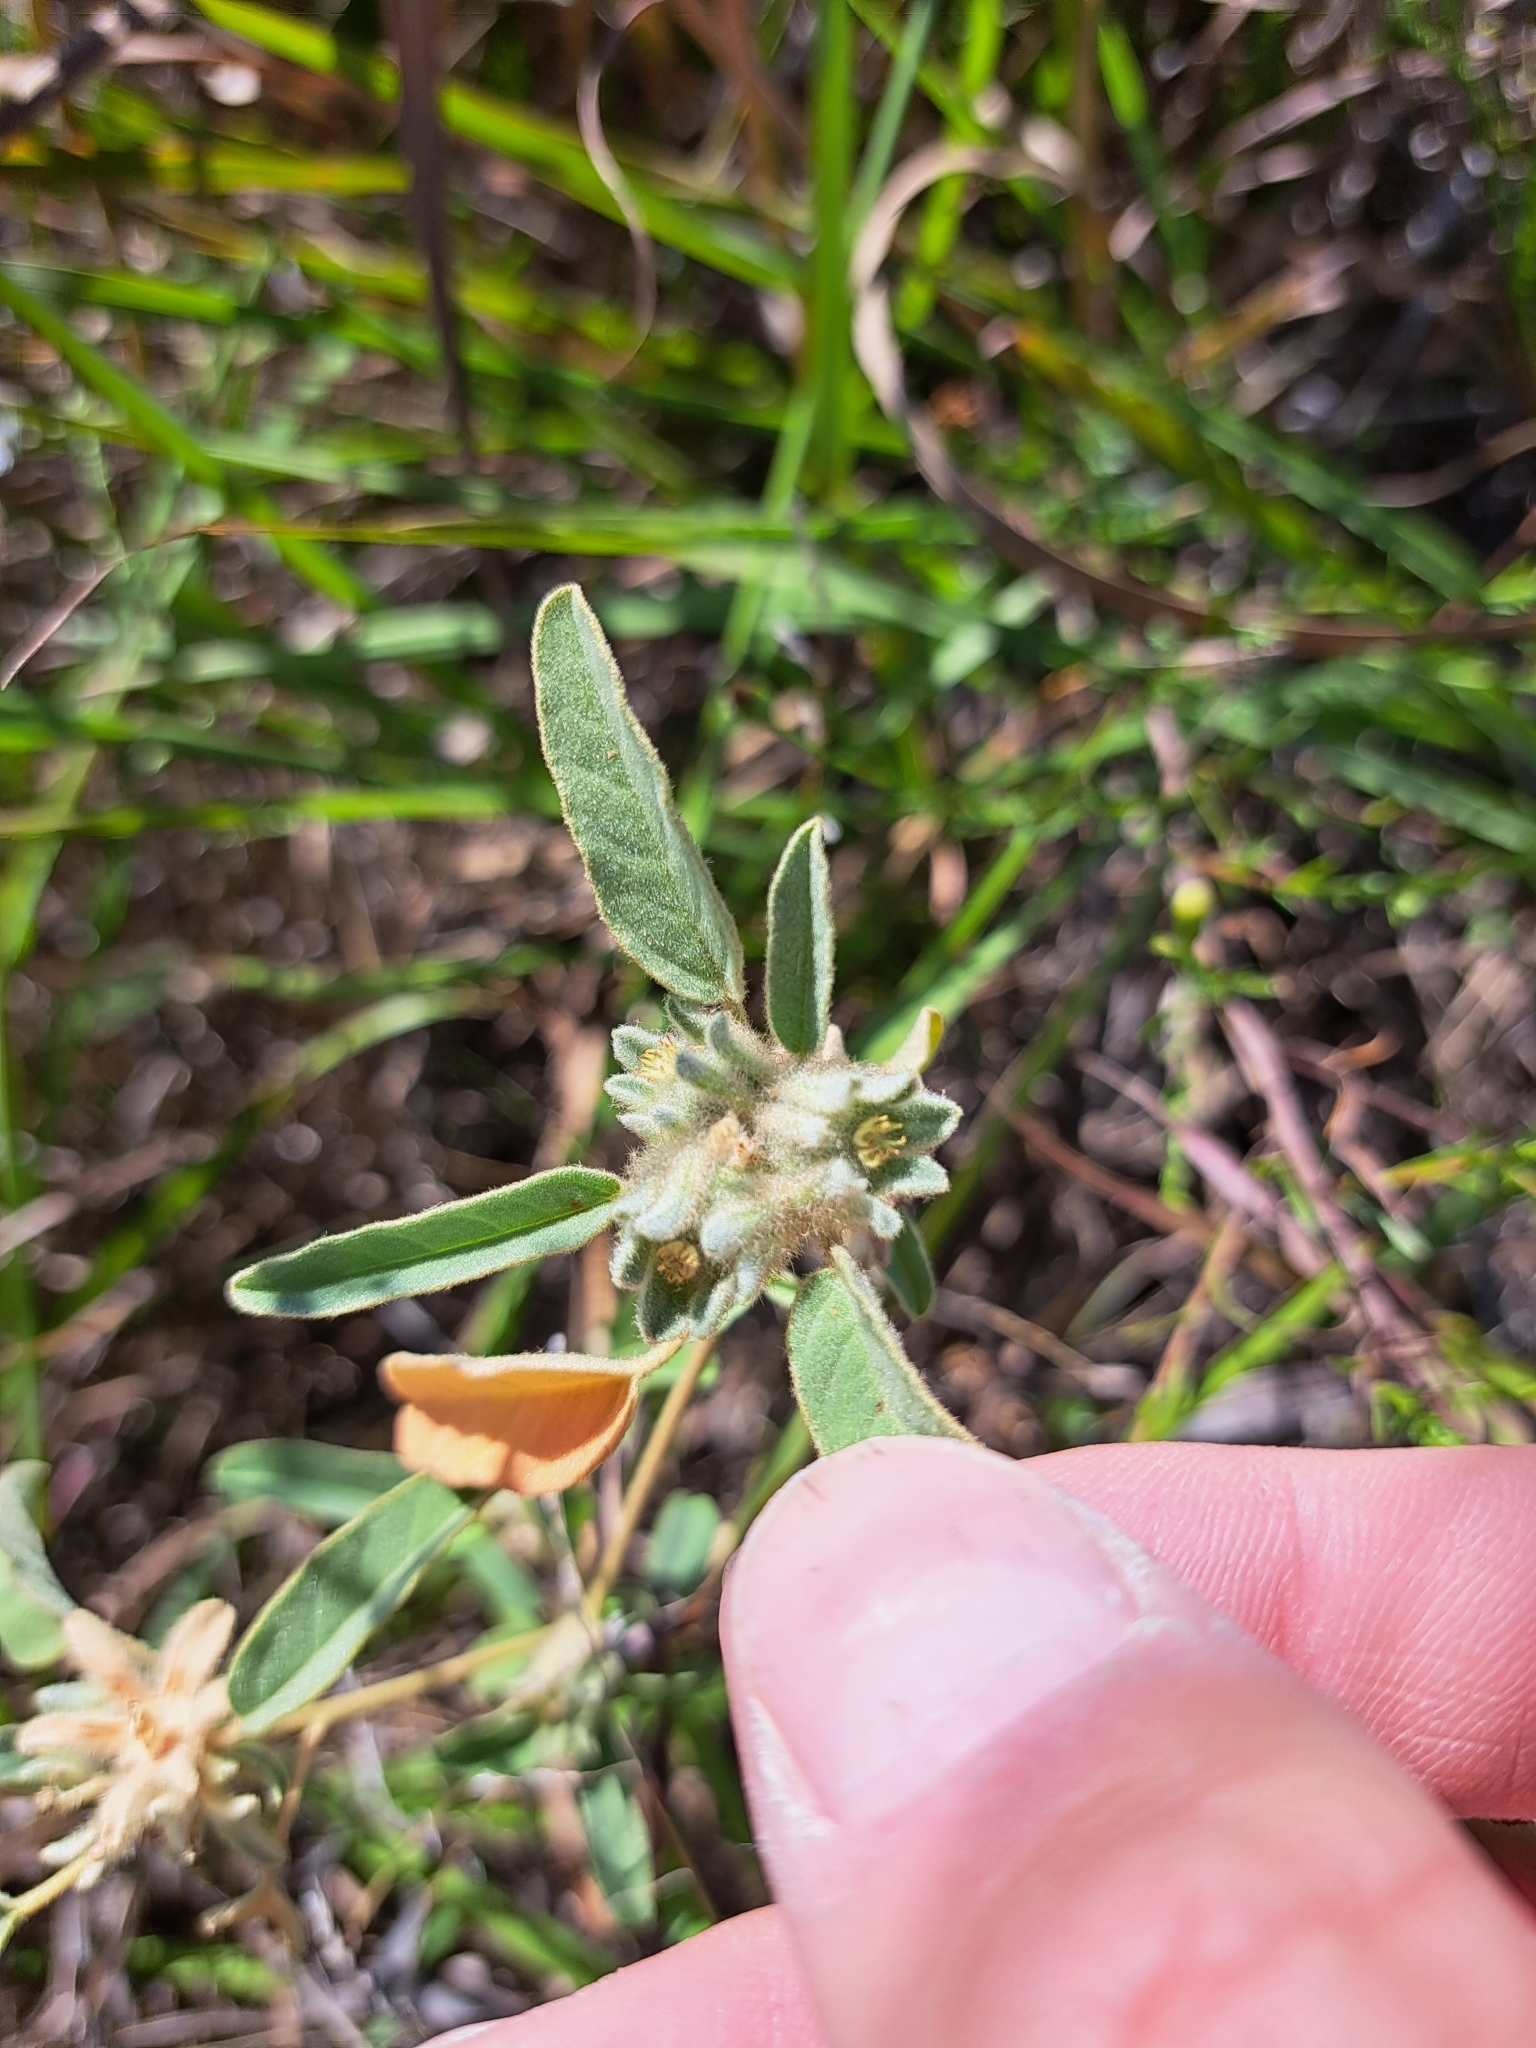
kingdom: Plantae
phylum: Tracheophyta
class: Magnoliopsida
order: Malpighiales
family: Euphorbiaceae
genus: Croton
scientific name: Croton capitatus
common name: Woolly croton
